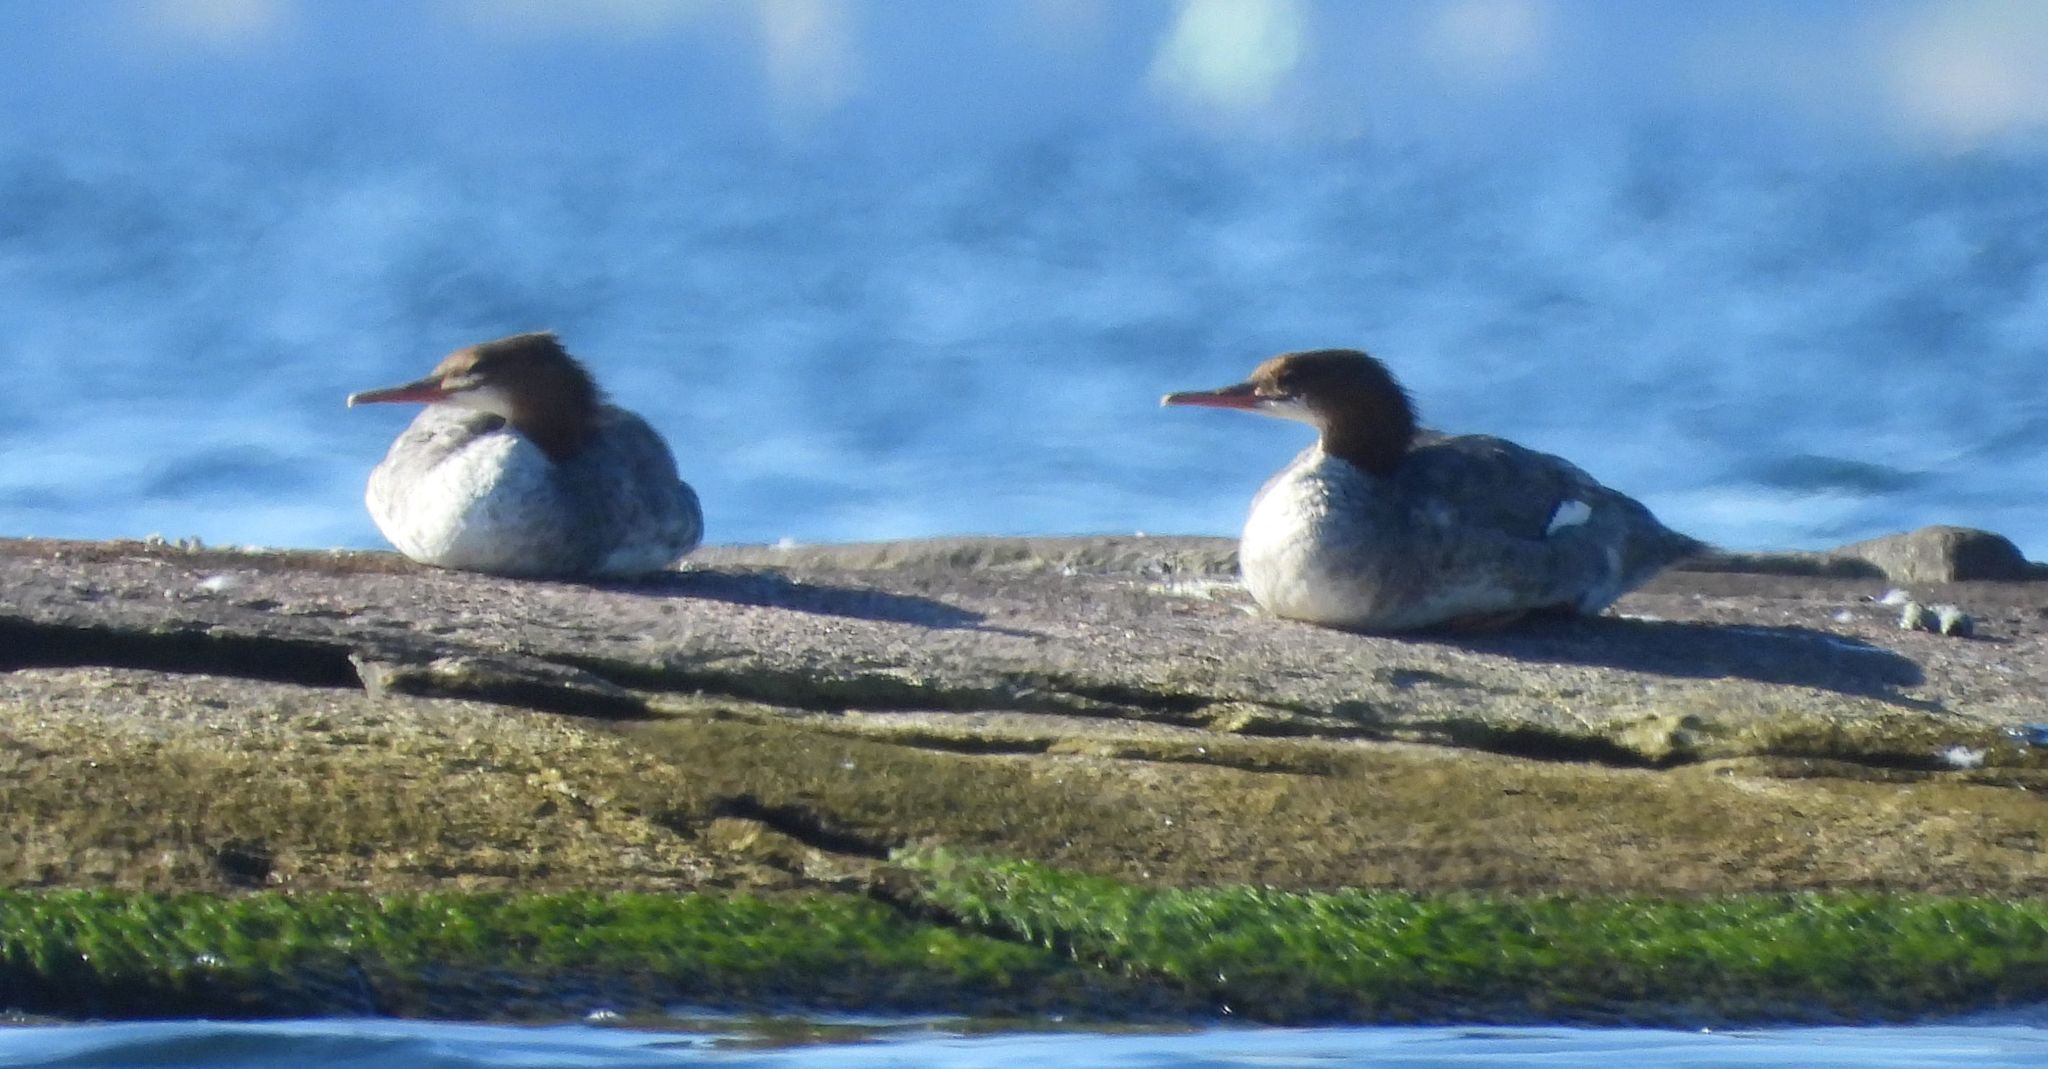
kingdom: Animalia
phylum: Chordata
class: Aves
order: Anseriformes
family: Anatidae
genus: Mergus
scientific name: Mergus merganser
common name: Common merganser
